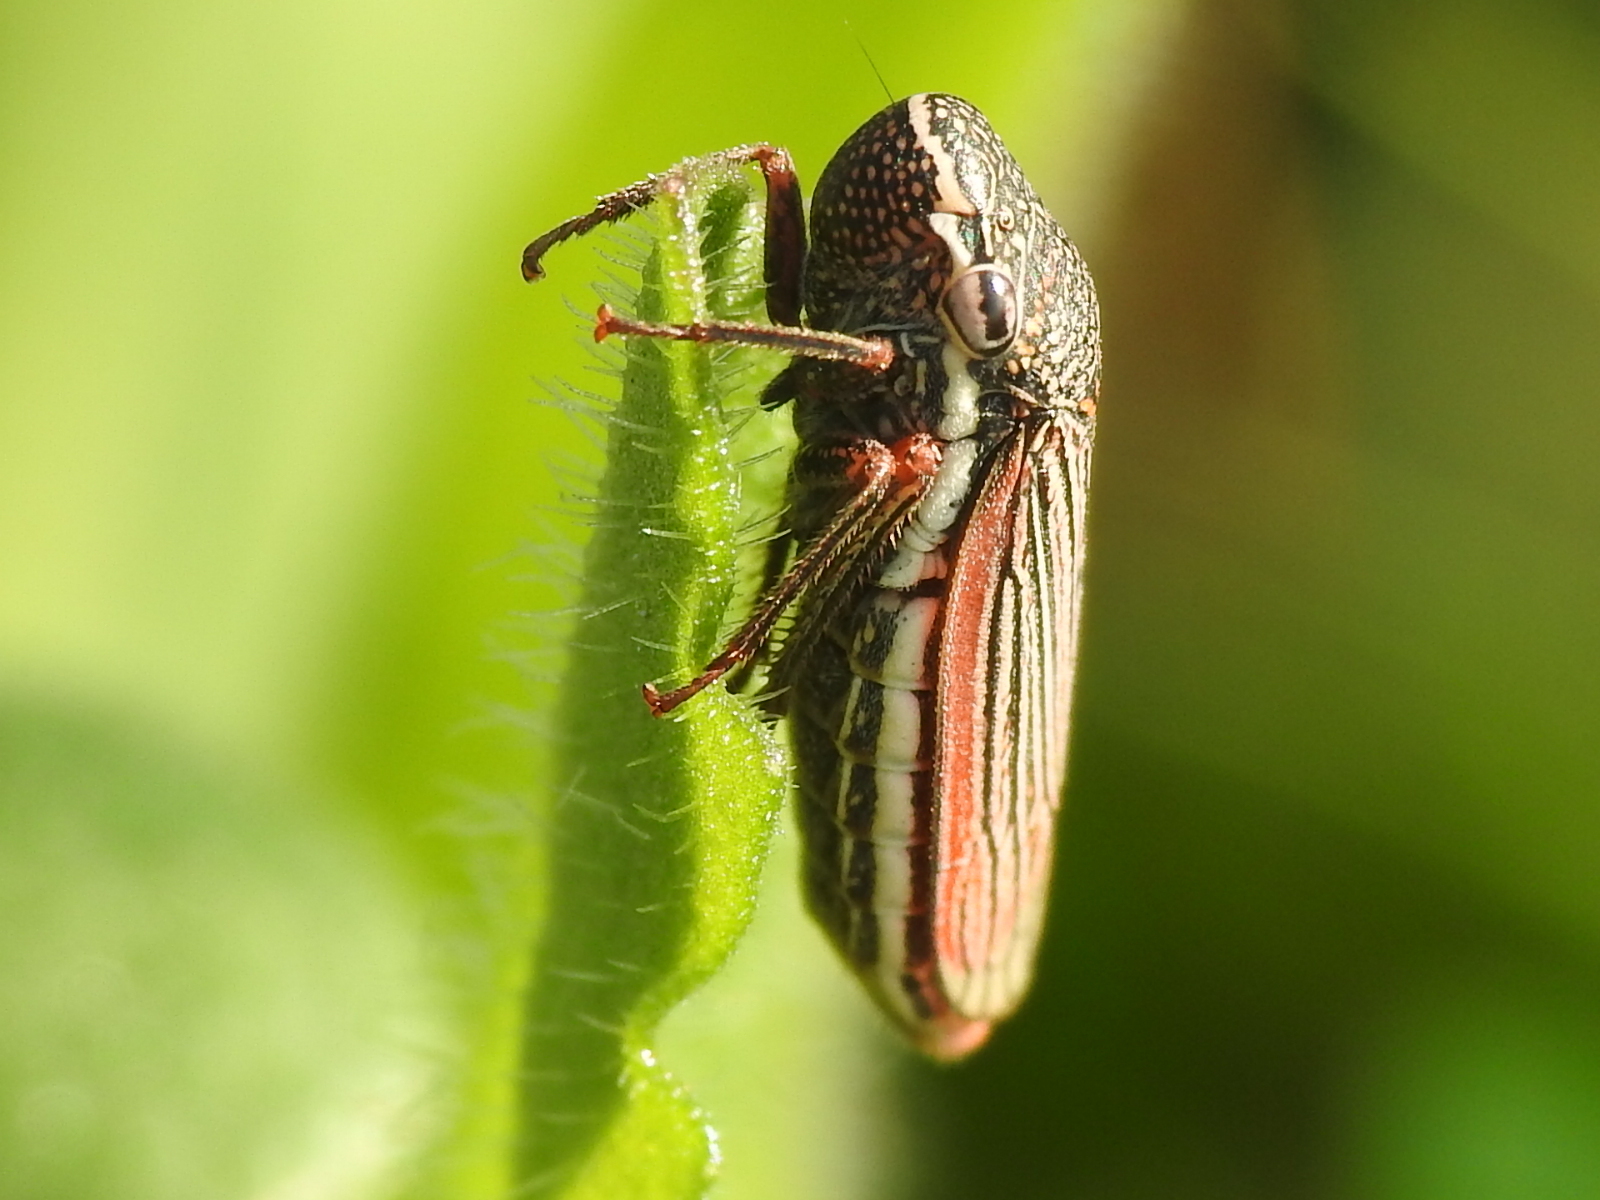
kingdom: Animalia
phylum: Arthropoda
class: Insecta
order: Hemiptera
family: Cicadellidae
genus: Cuerna
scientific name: Cuerna costalis
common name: Lateral-lined sharpshooter
